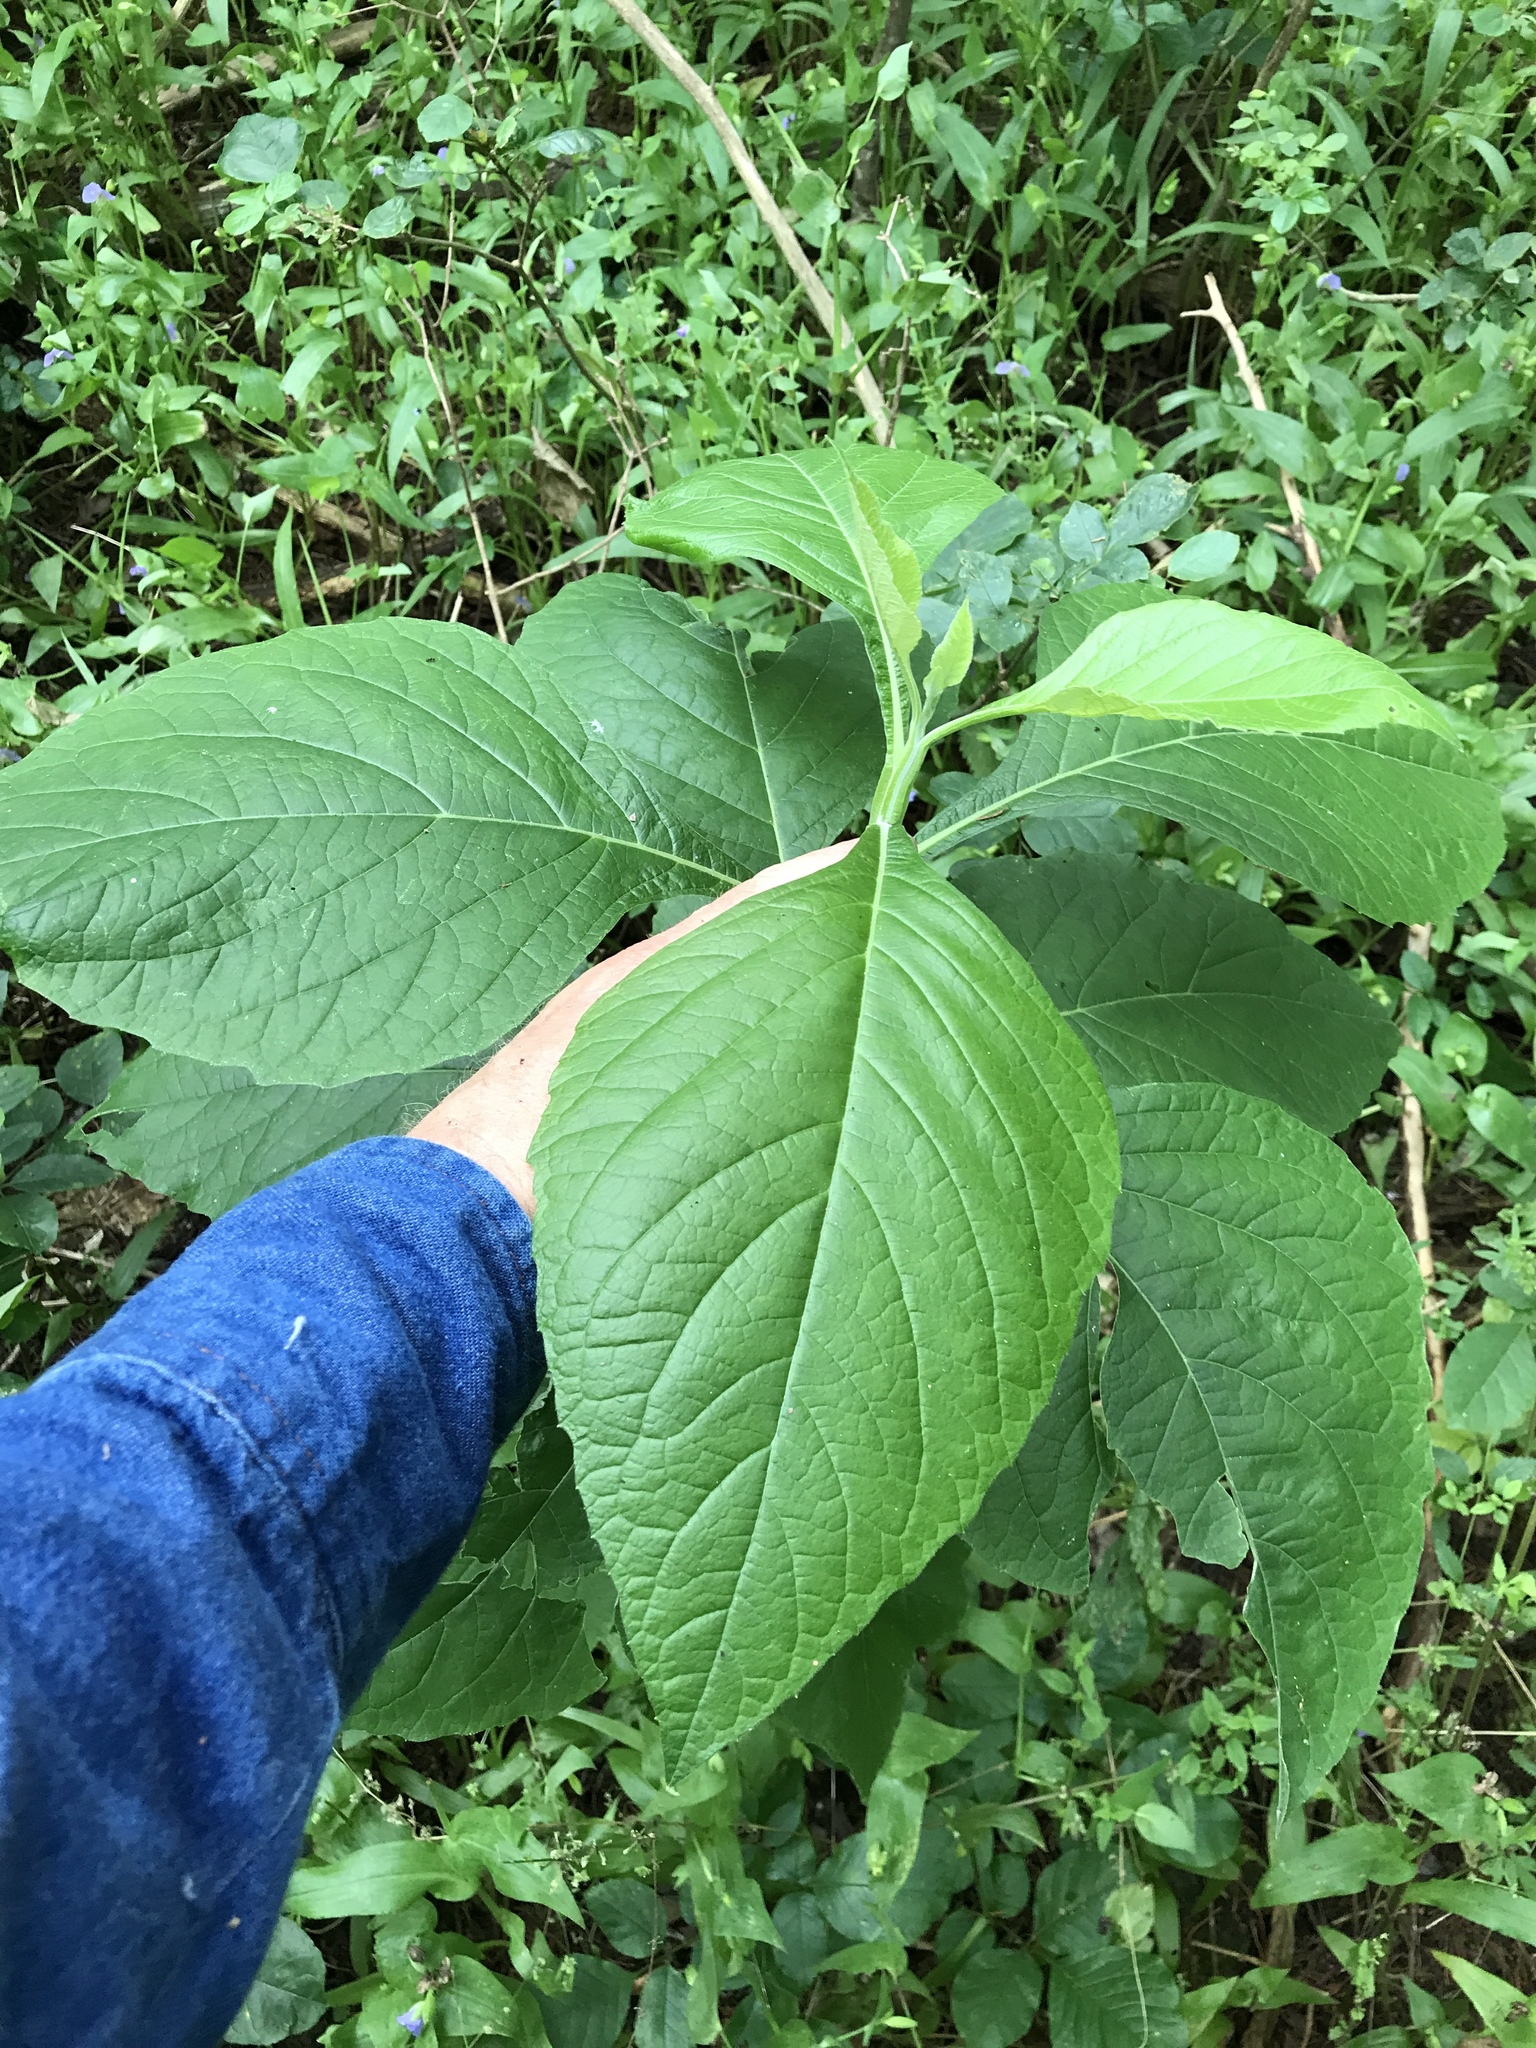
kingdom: Plantae
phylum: Tracheophyta
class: Magnoliopsida
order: Asterales
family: Asteraceae
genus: Verbesina
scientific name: Verbesina virginica
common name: Frostweed
